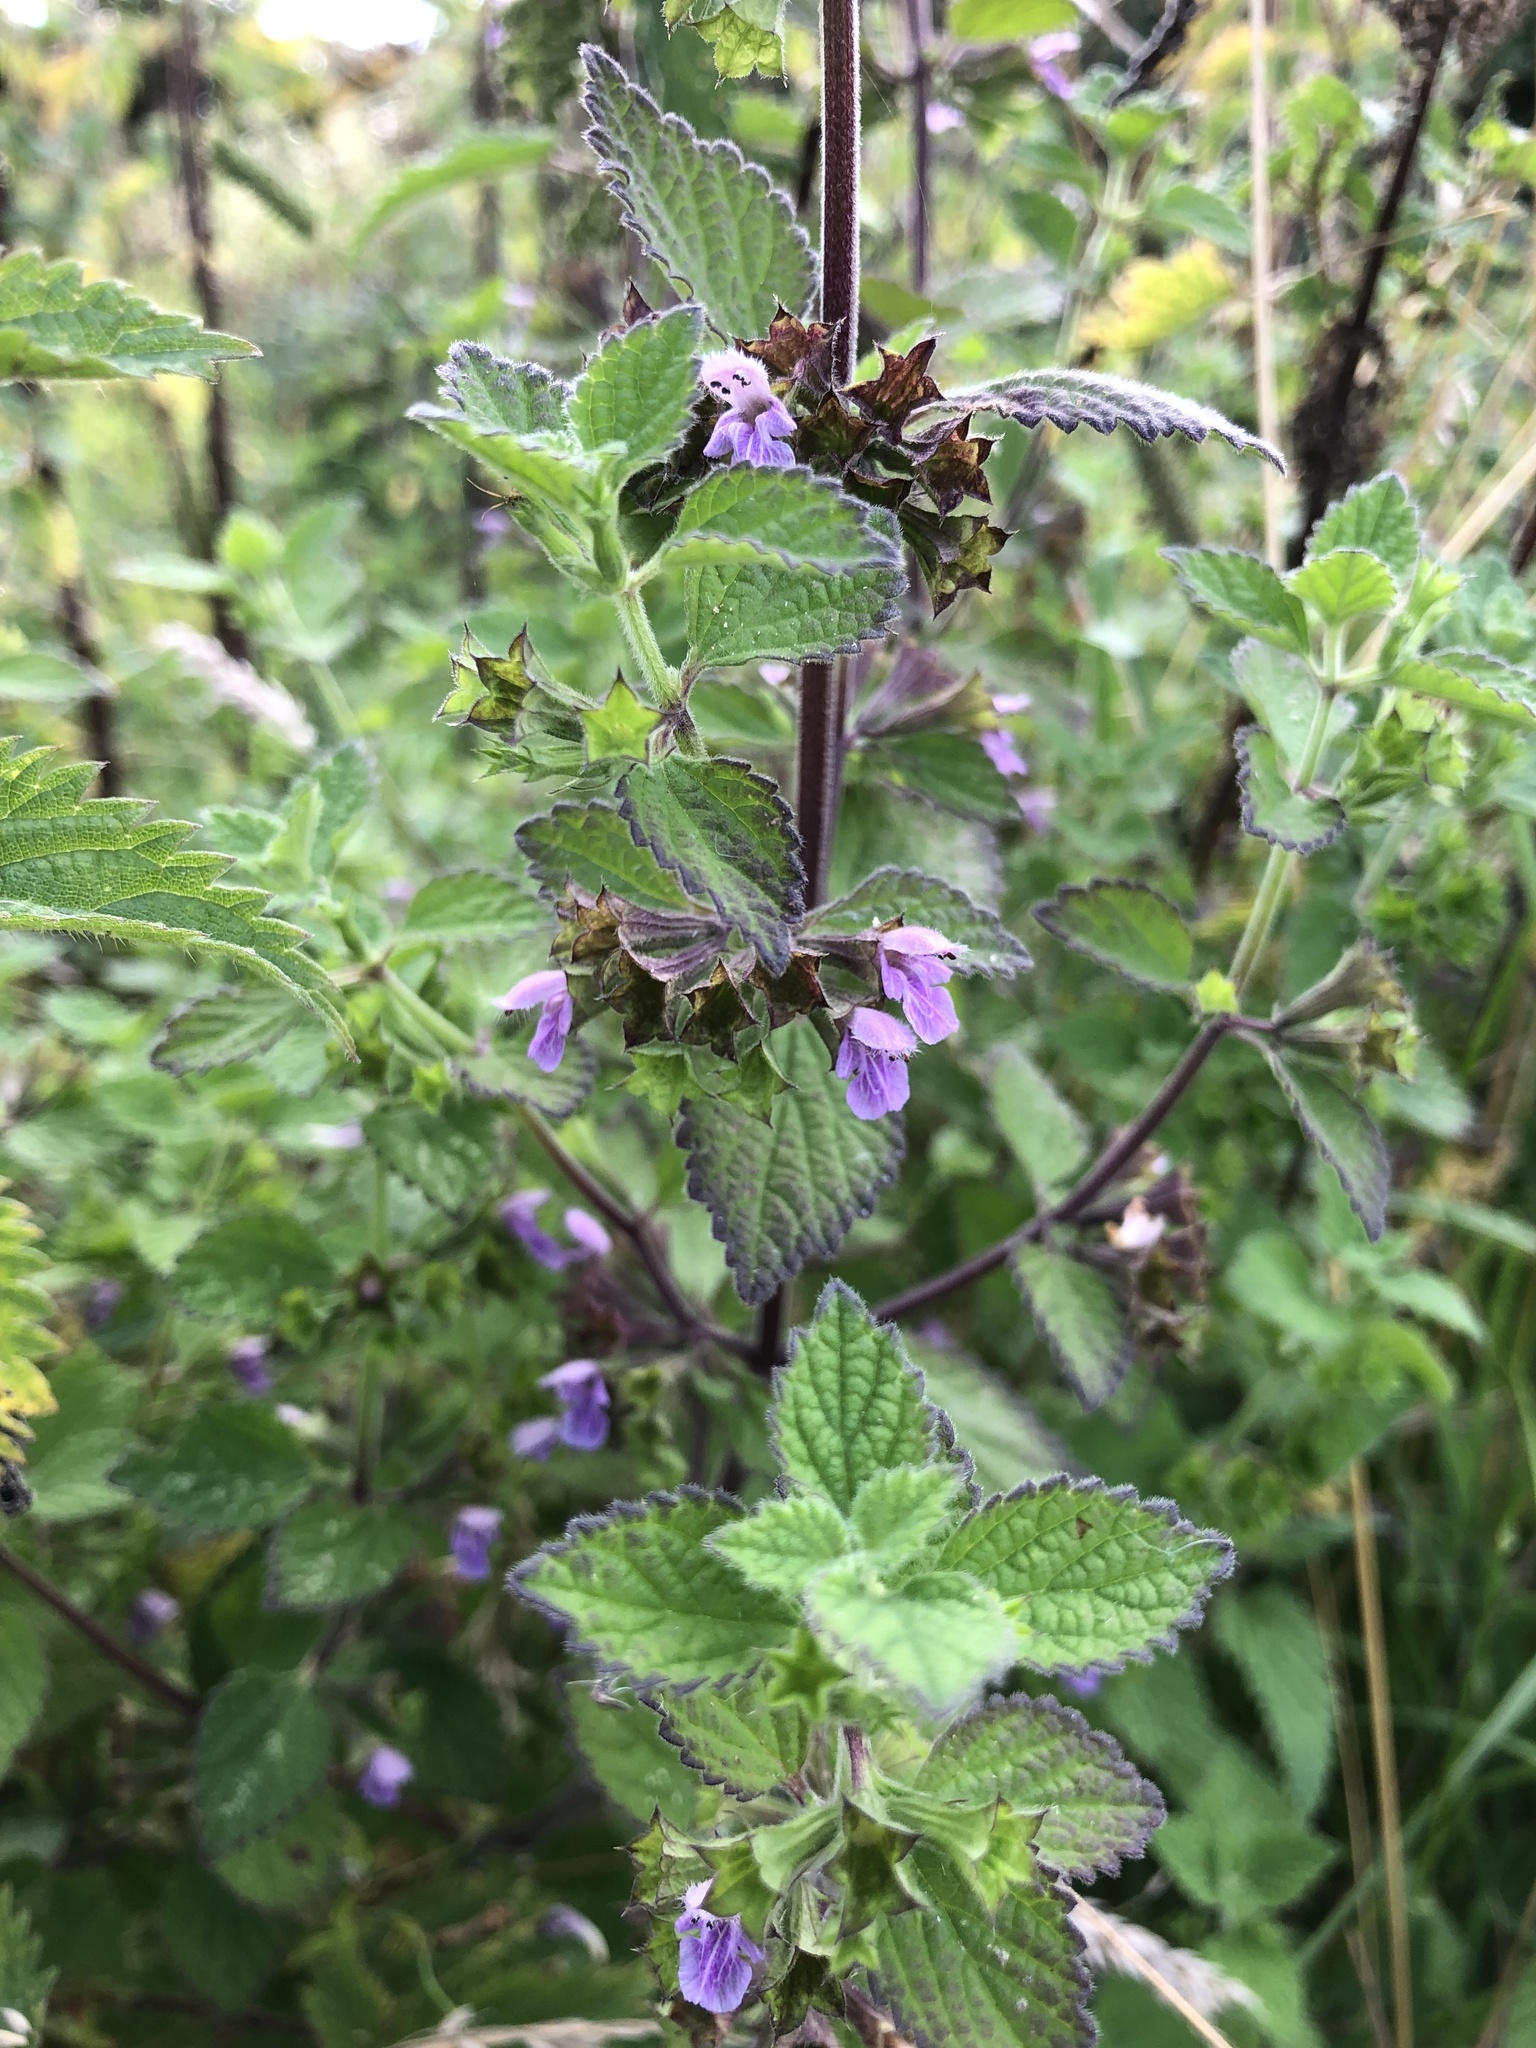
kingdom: Plantae
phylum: Tracheophyta
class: Magnoliopsida
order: Lamiales
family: Lamiaceae
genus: Ballota
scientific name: Ballota nigra
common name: Black horehound
